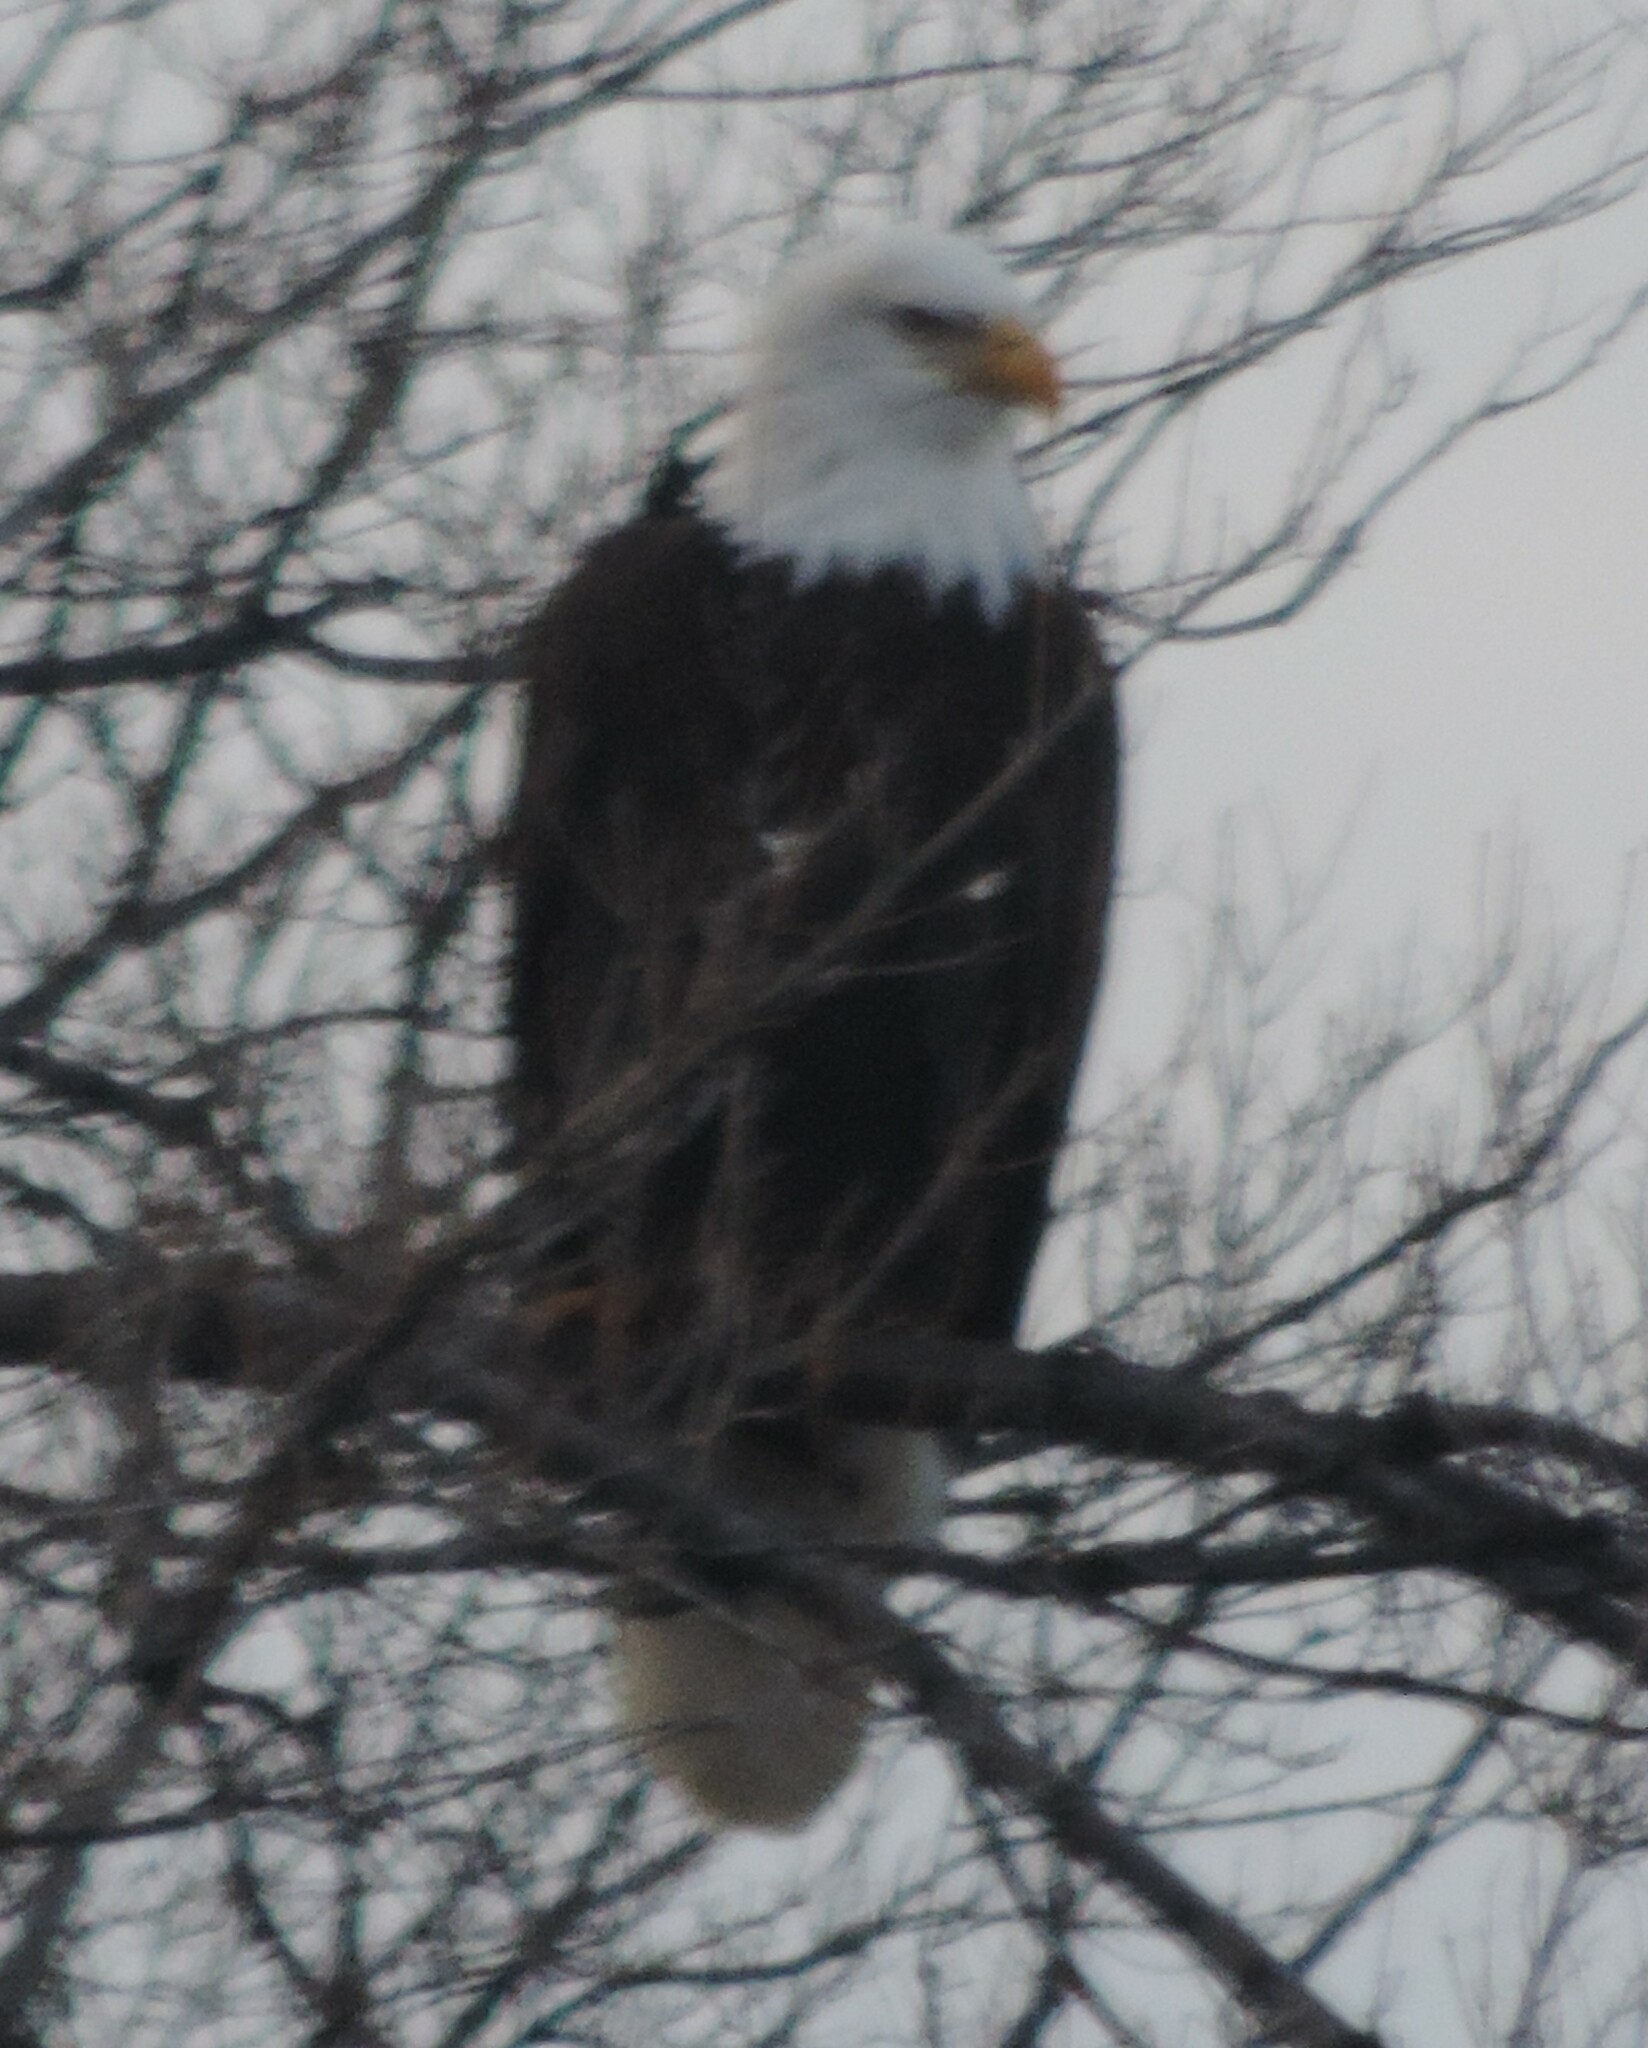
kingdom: Animalia
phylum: Chordata
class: Aves
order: Accipitriformes
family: Accipitridae
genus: Haliaeetus
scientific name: Haliaeetus leucocephalus
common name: Bald eagle
